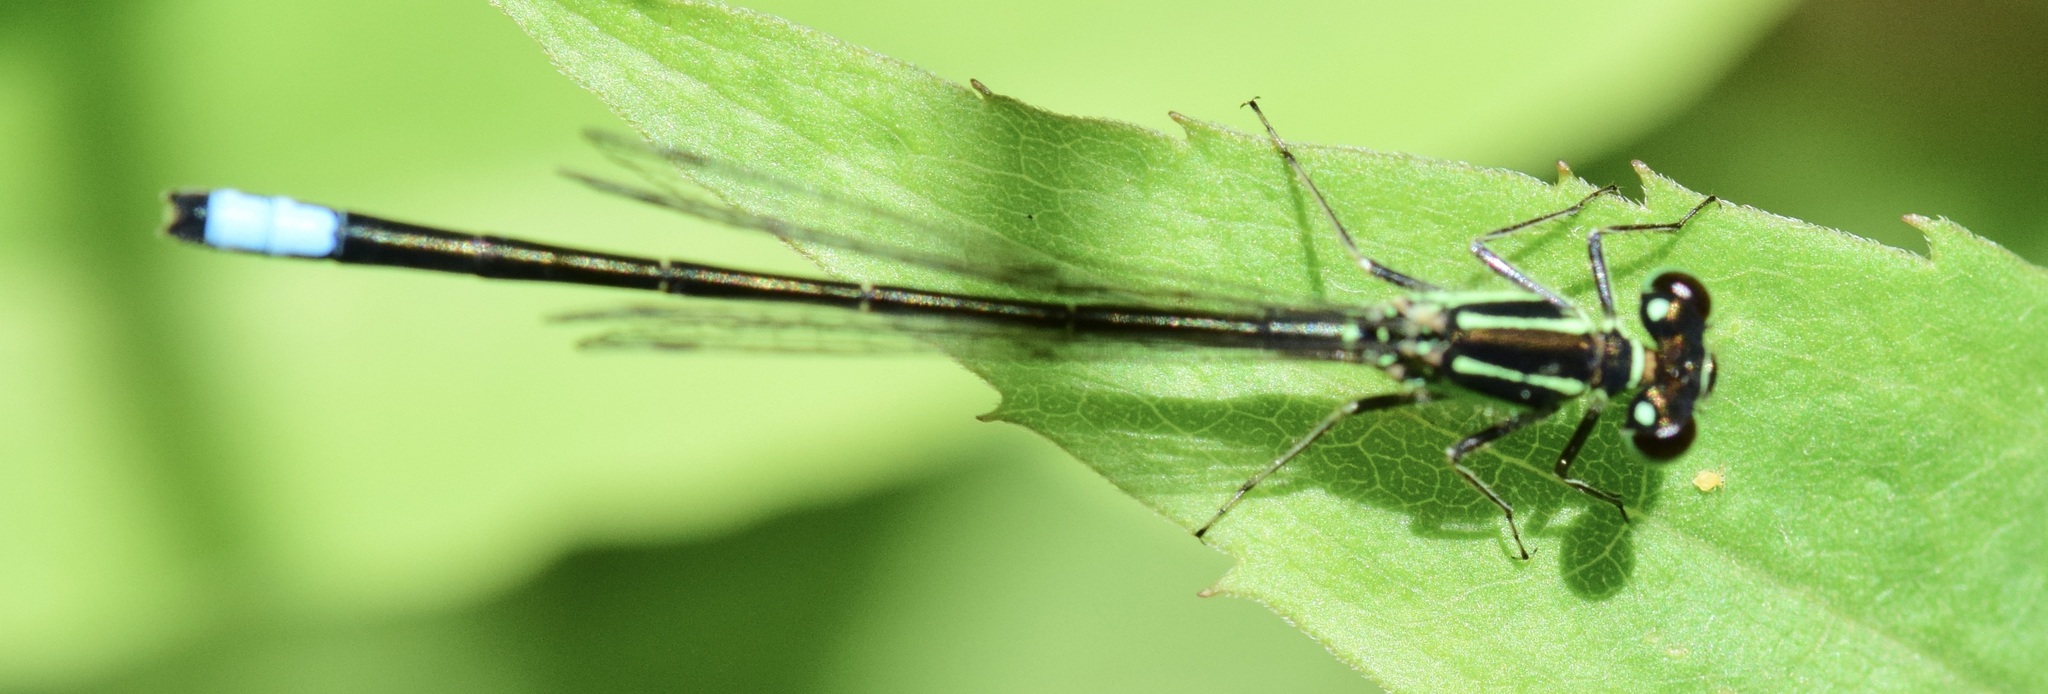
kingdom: Animalia
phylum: Arthropoda
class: Insecta
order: Odonata
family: Coenagrionidae
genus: Ischnura
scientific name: Ischnura verticalis
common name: Eastern forktail
